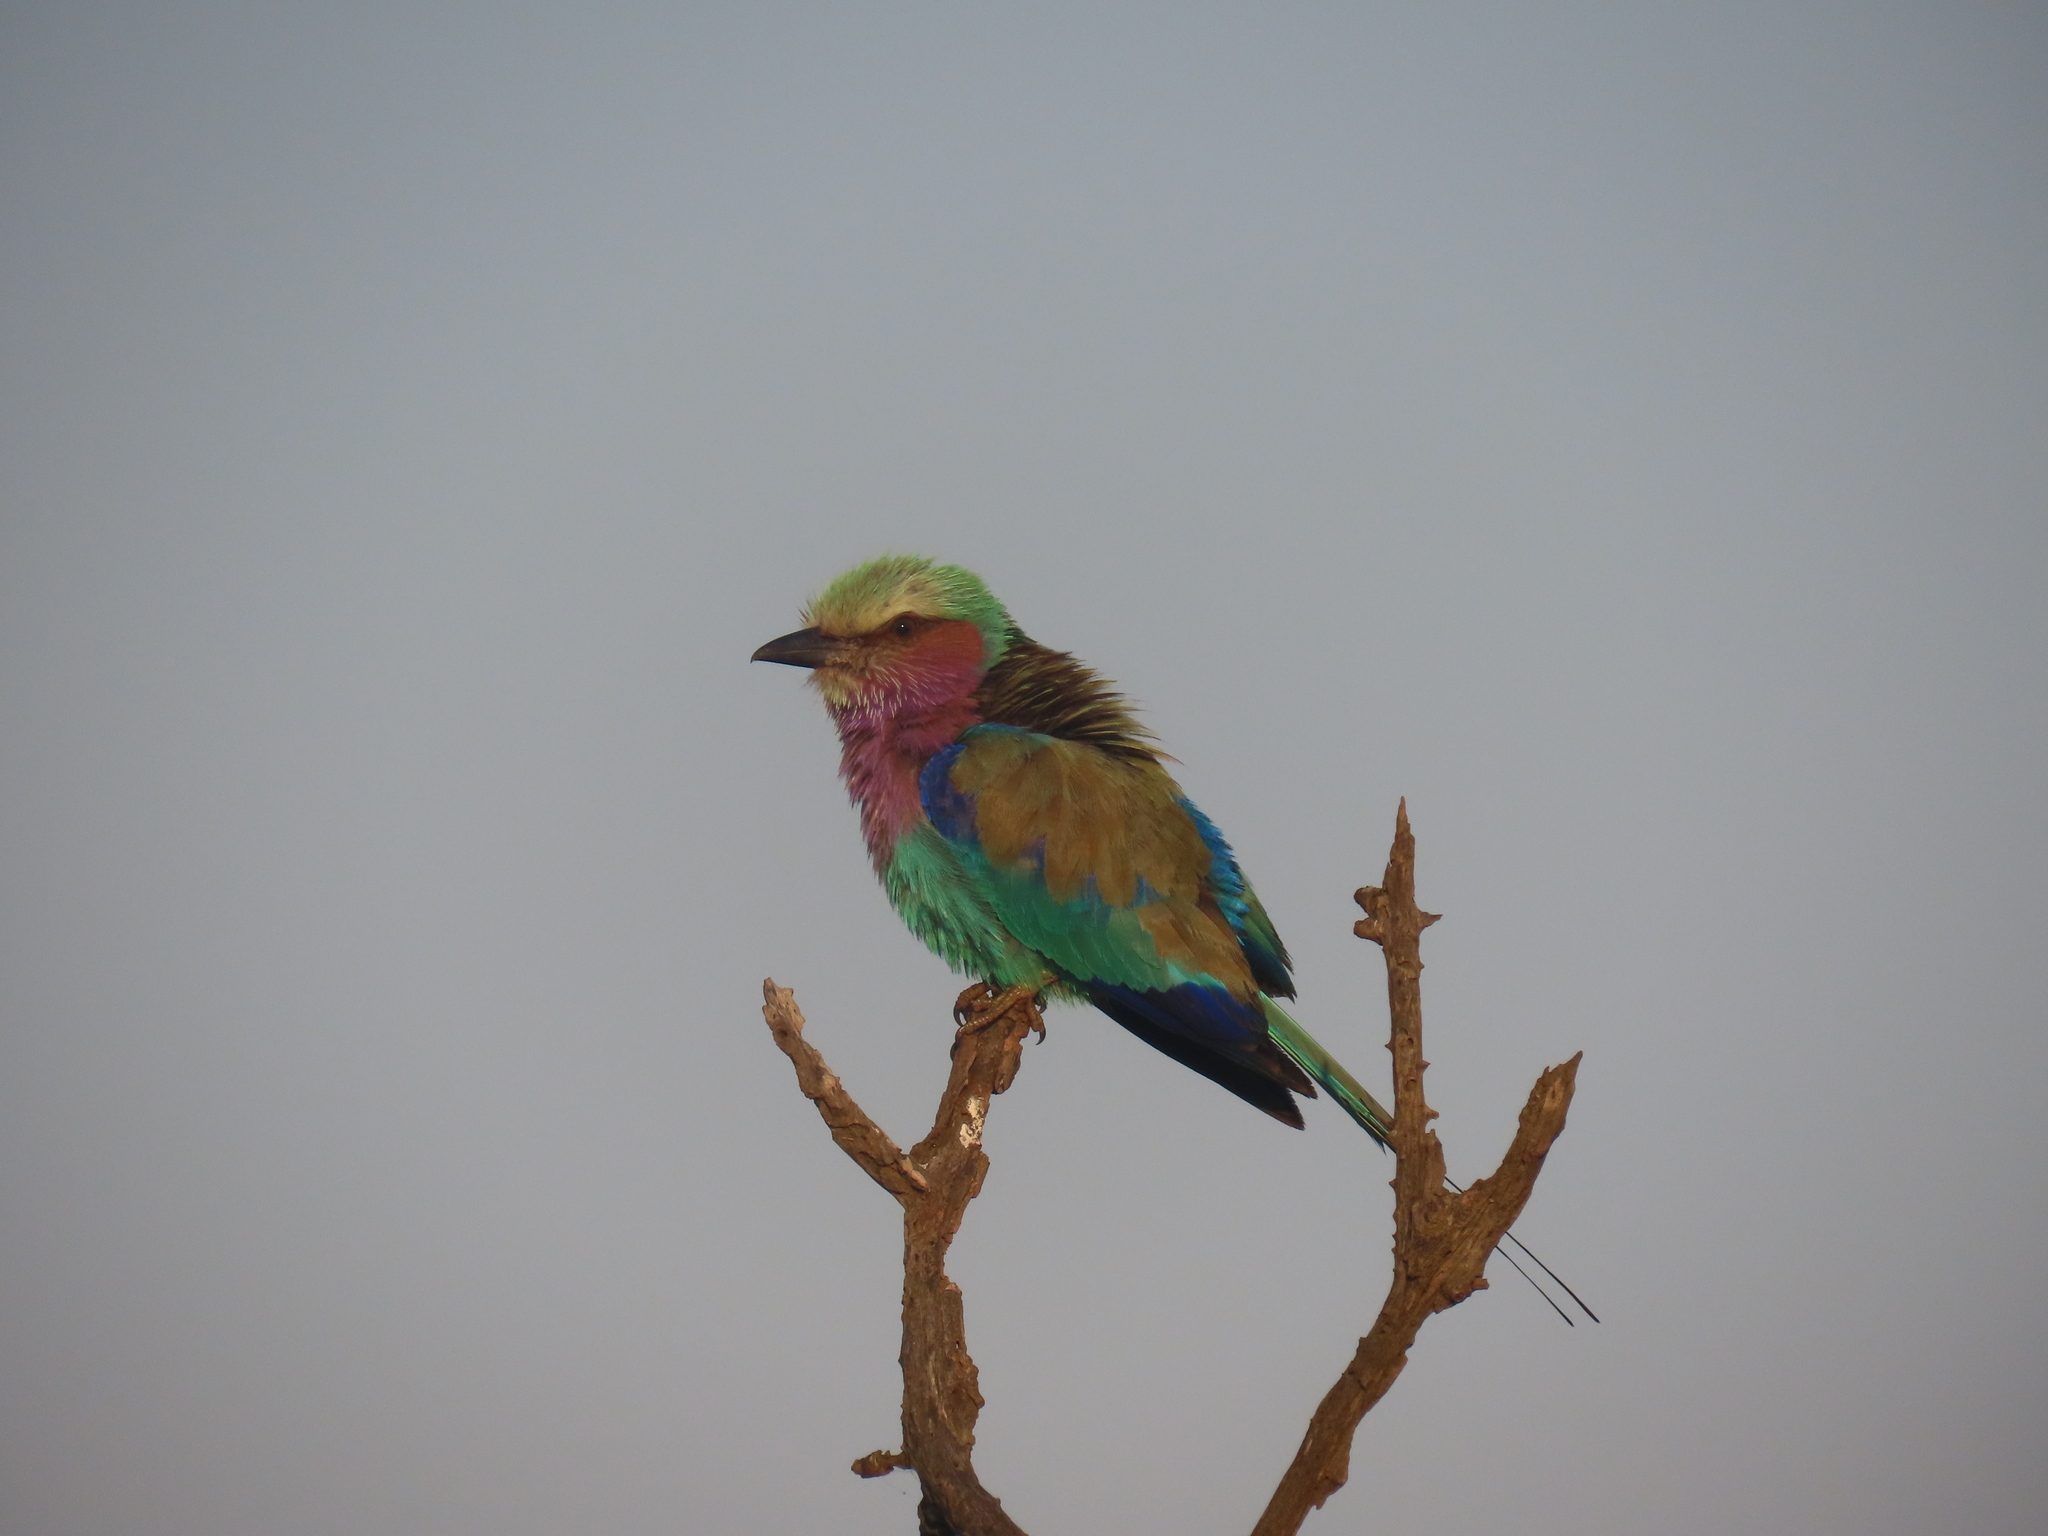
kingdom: Animalia
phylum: Chordata
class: Aves
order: Coraciiformes
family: Coraciidae
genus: Coracias
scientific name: Coracias caudatus
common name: Lilac-breasted roller
